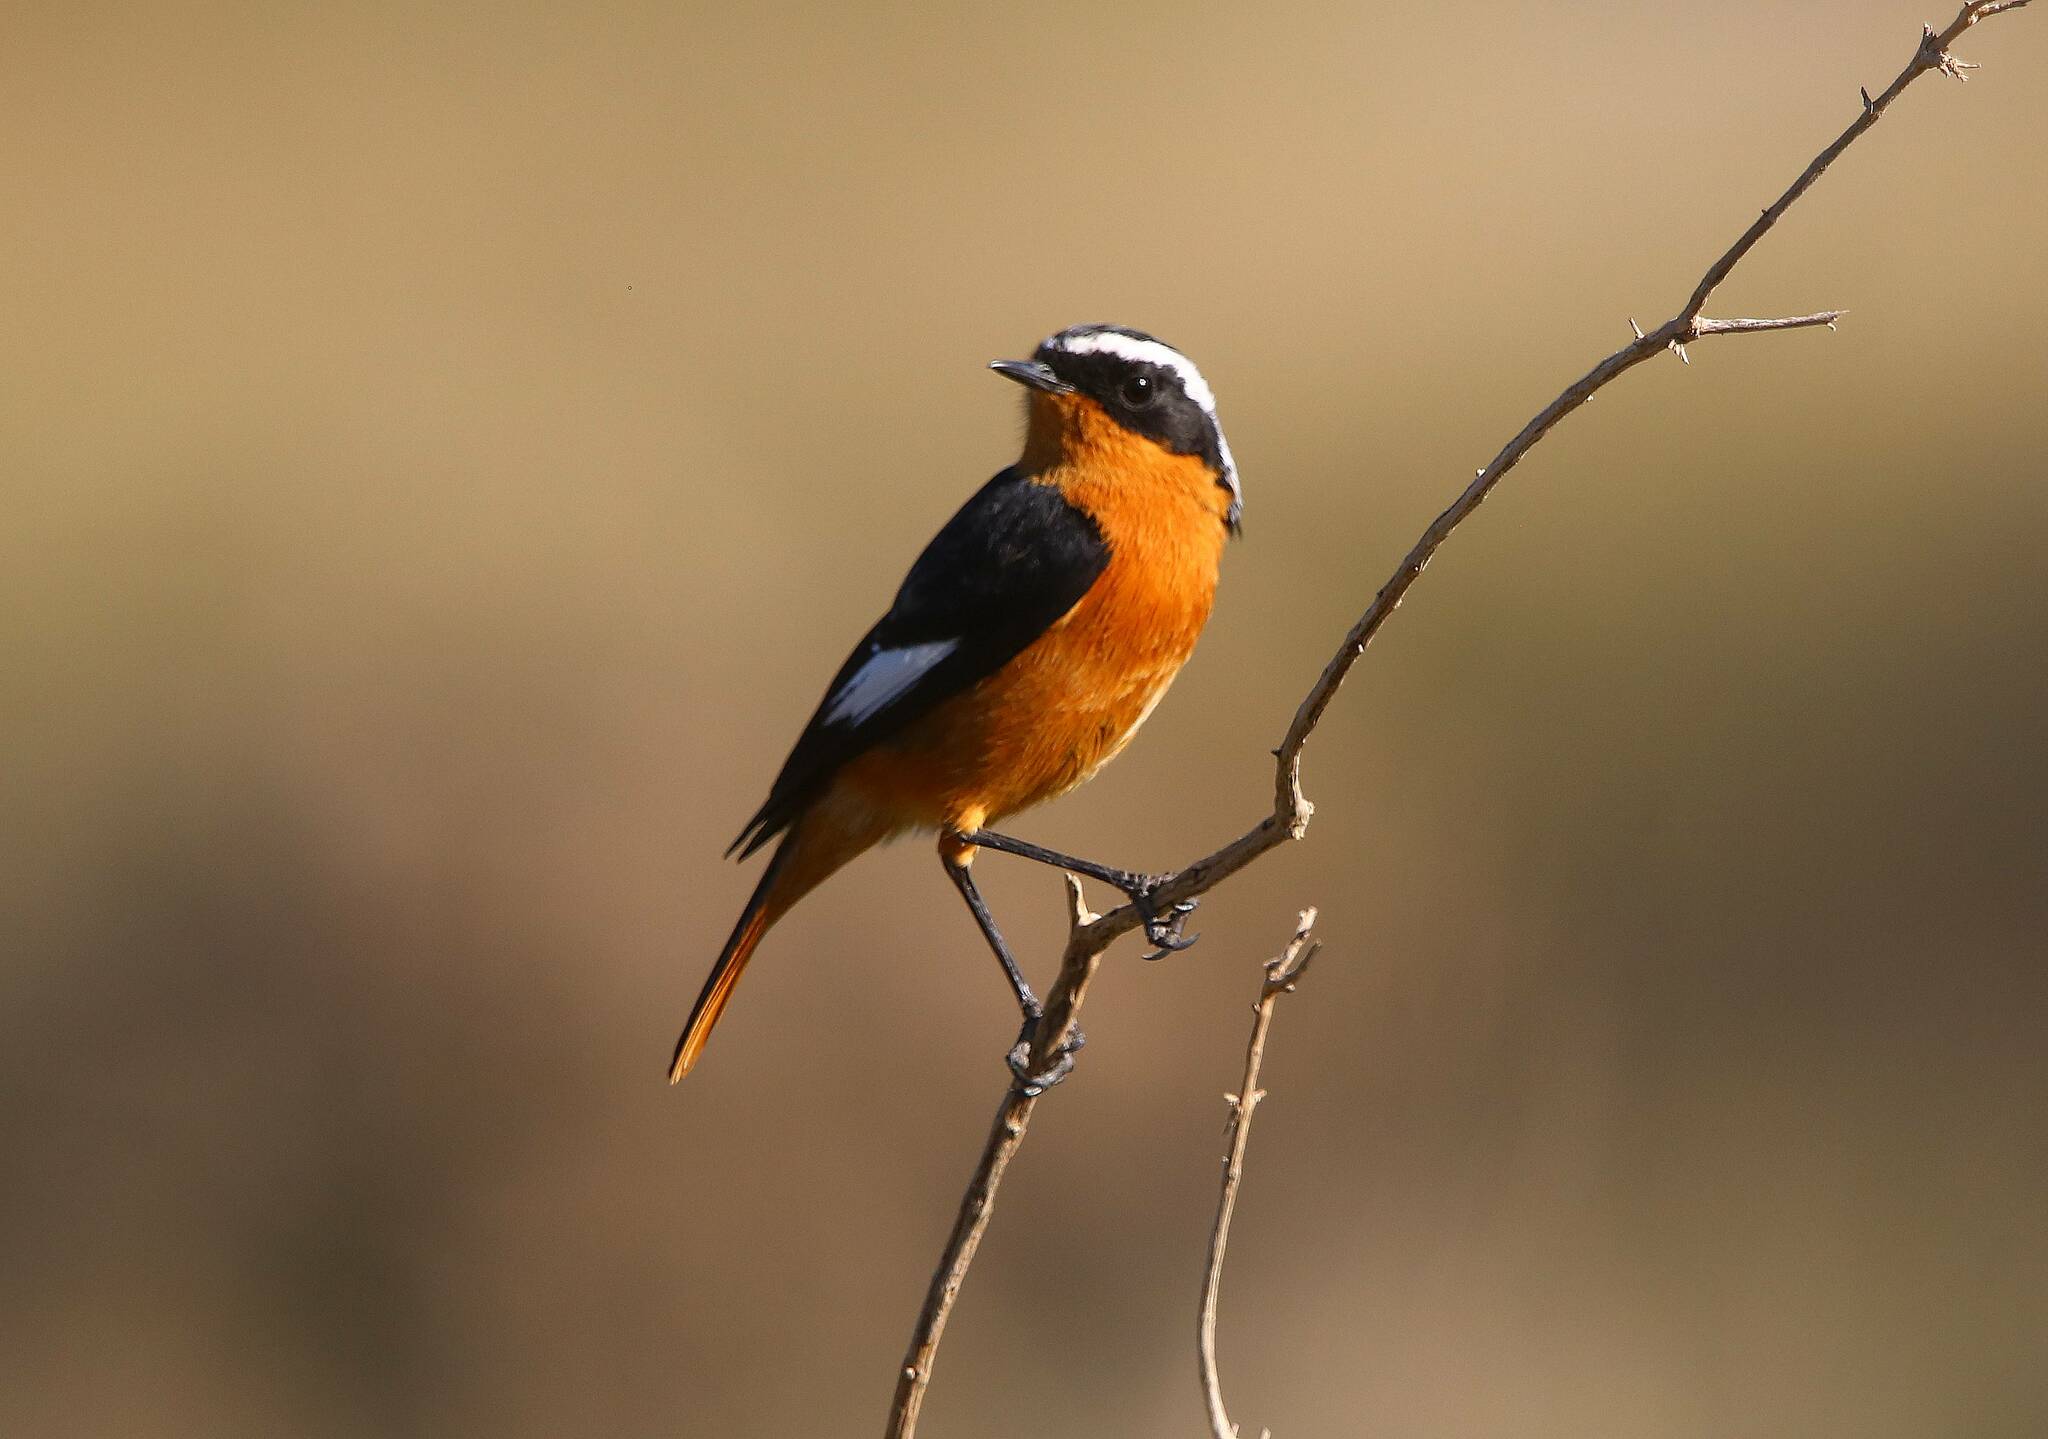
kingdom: Animalia
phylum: Chordata
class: Aves
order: Passeriformes
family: Muscicapidae
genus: Phoenicurus
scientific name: Phoenicurus moussieri
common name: Moussier's redstart
